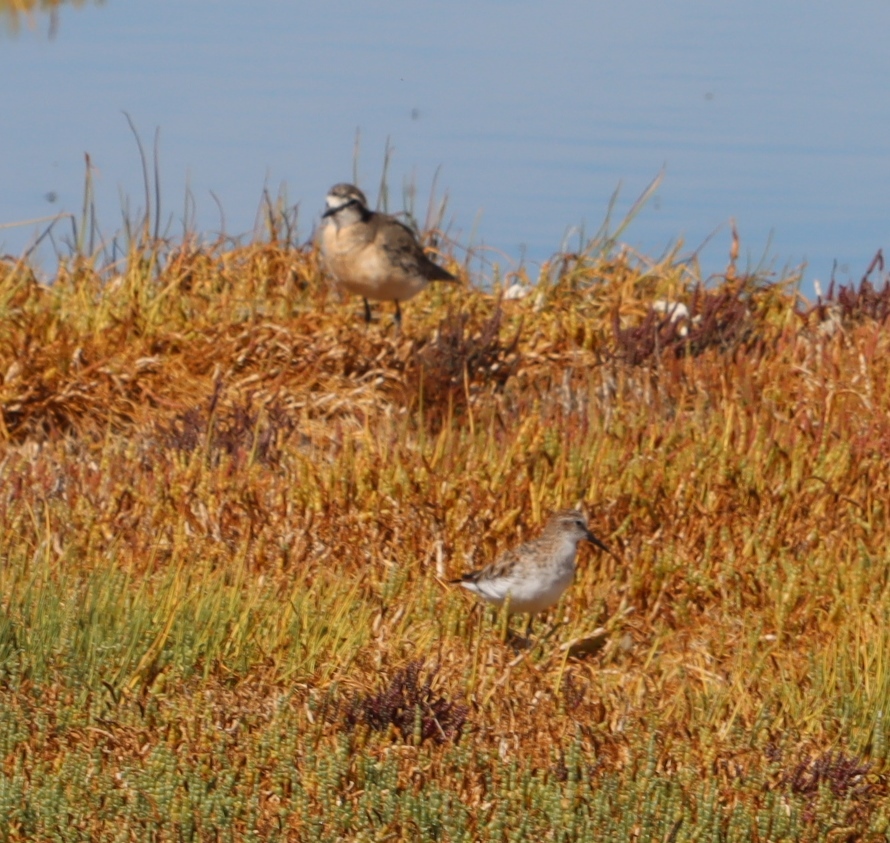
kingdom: Animalia
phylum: Chordata
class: Aves
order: Charadriiformes
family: Scolopacidae
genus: Calidris
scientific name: Calidris minuta
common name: Little stint
